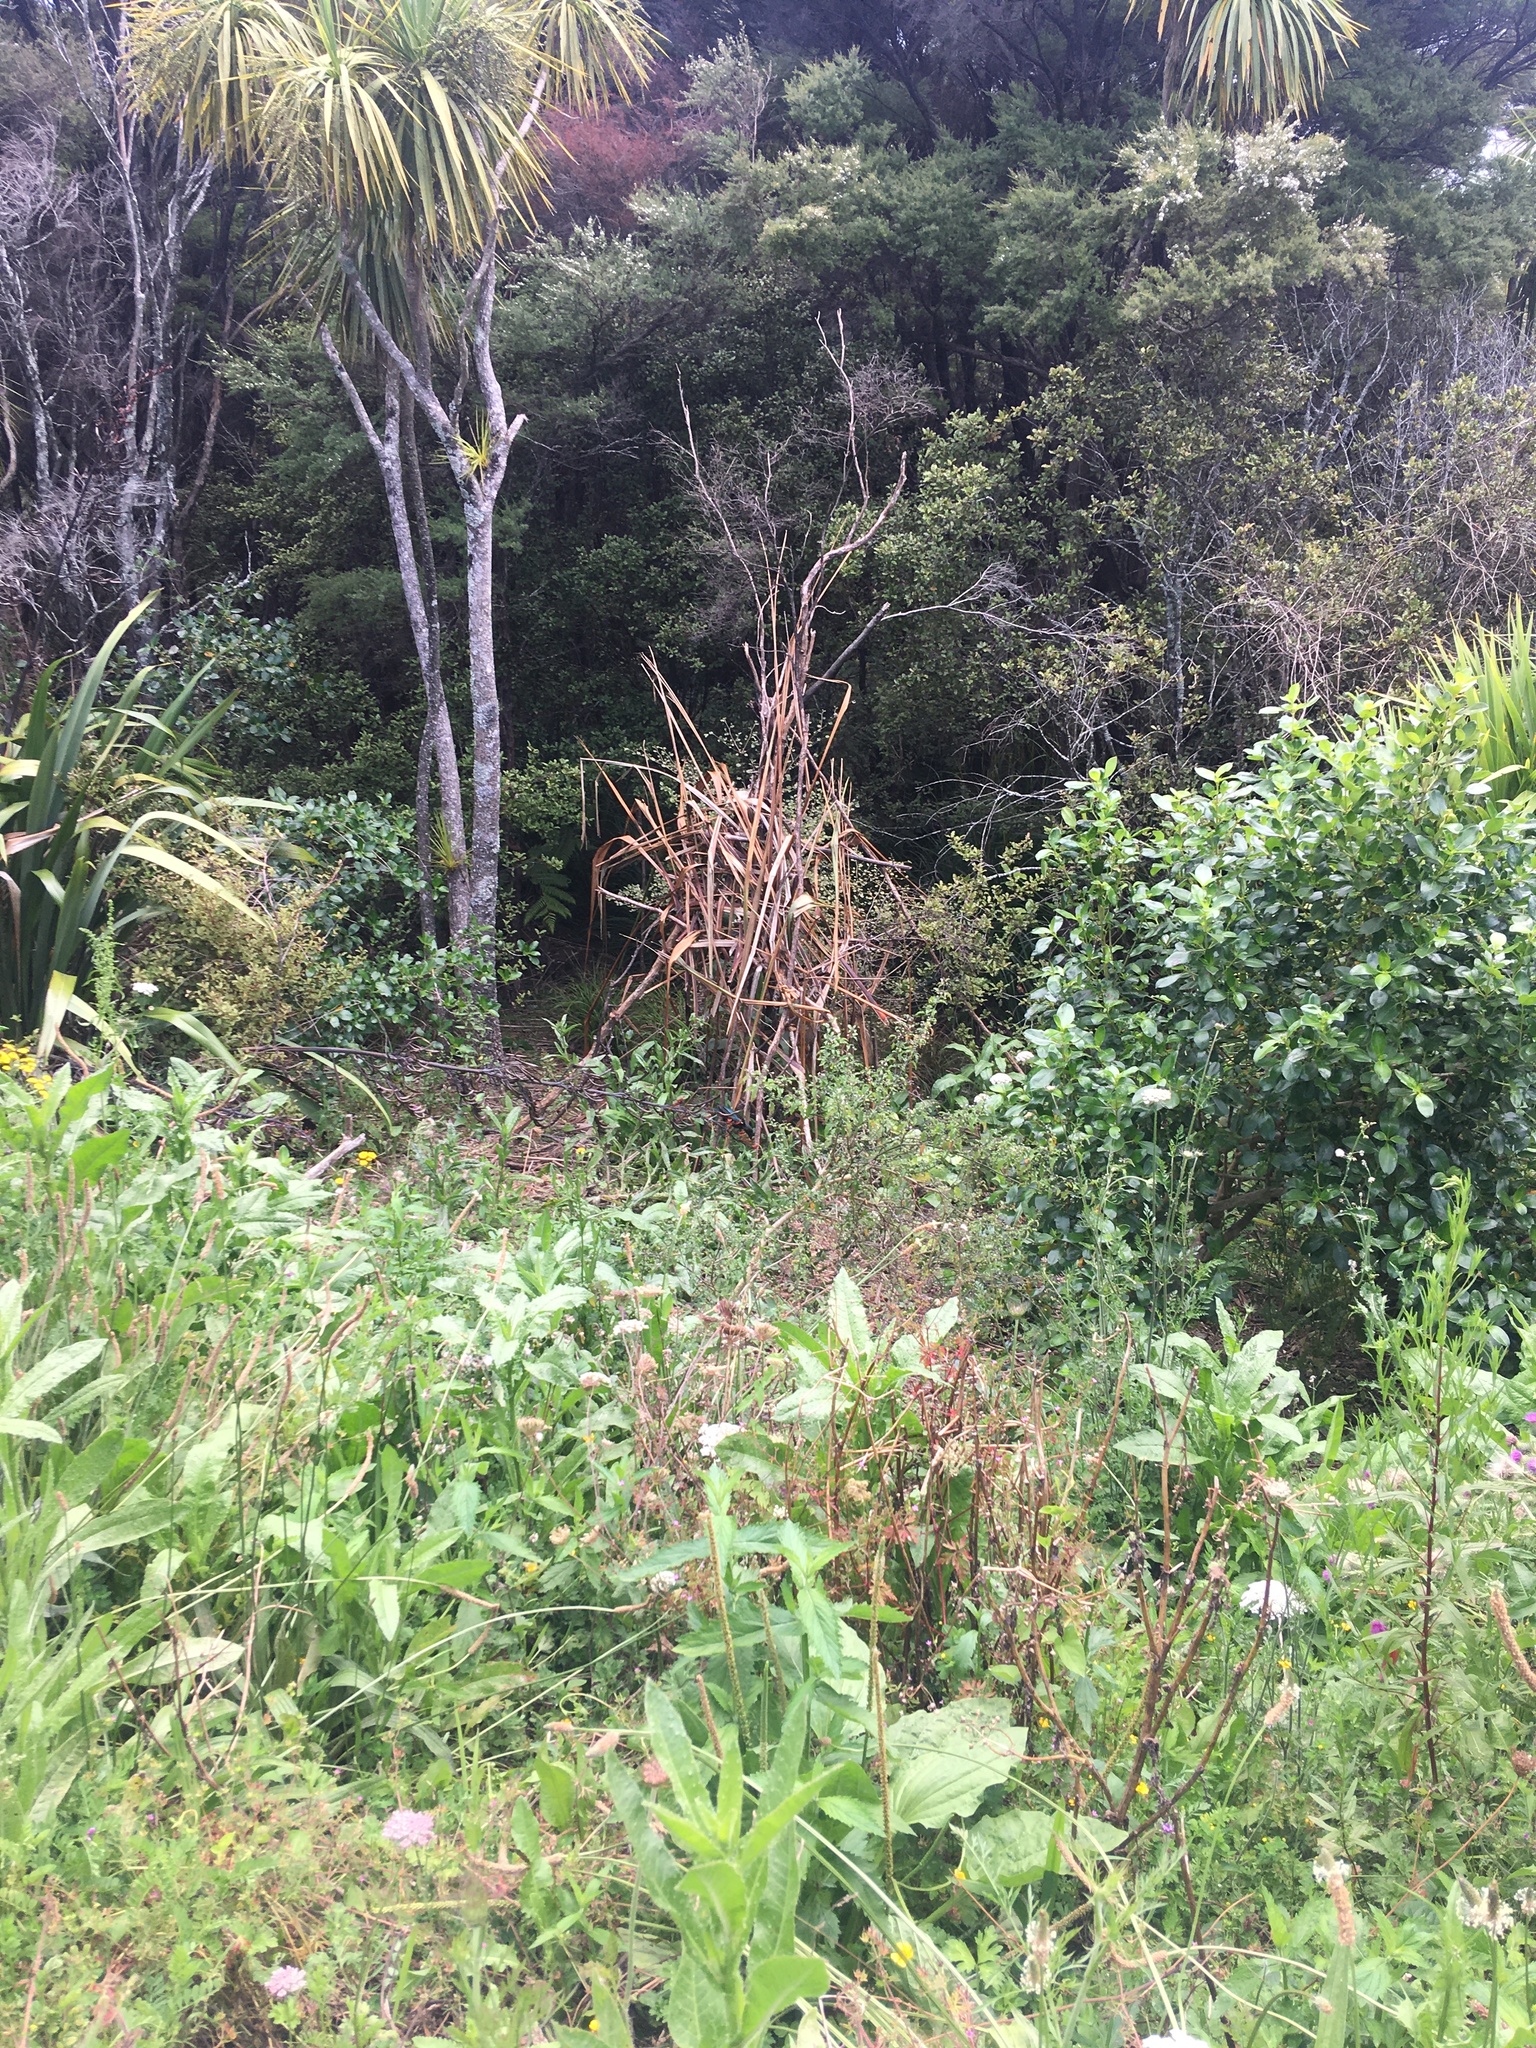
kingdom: Animalia
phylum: Chordata
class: Aves
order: Passeriformes
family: Turdidae
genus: Turdus
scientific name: Turdus merula
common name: Common blackbird
